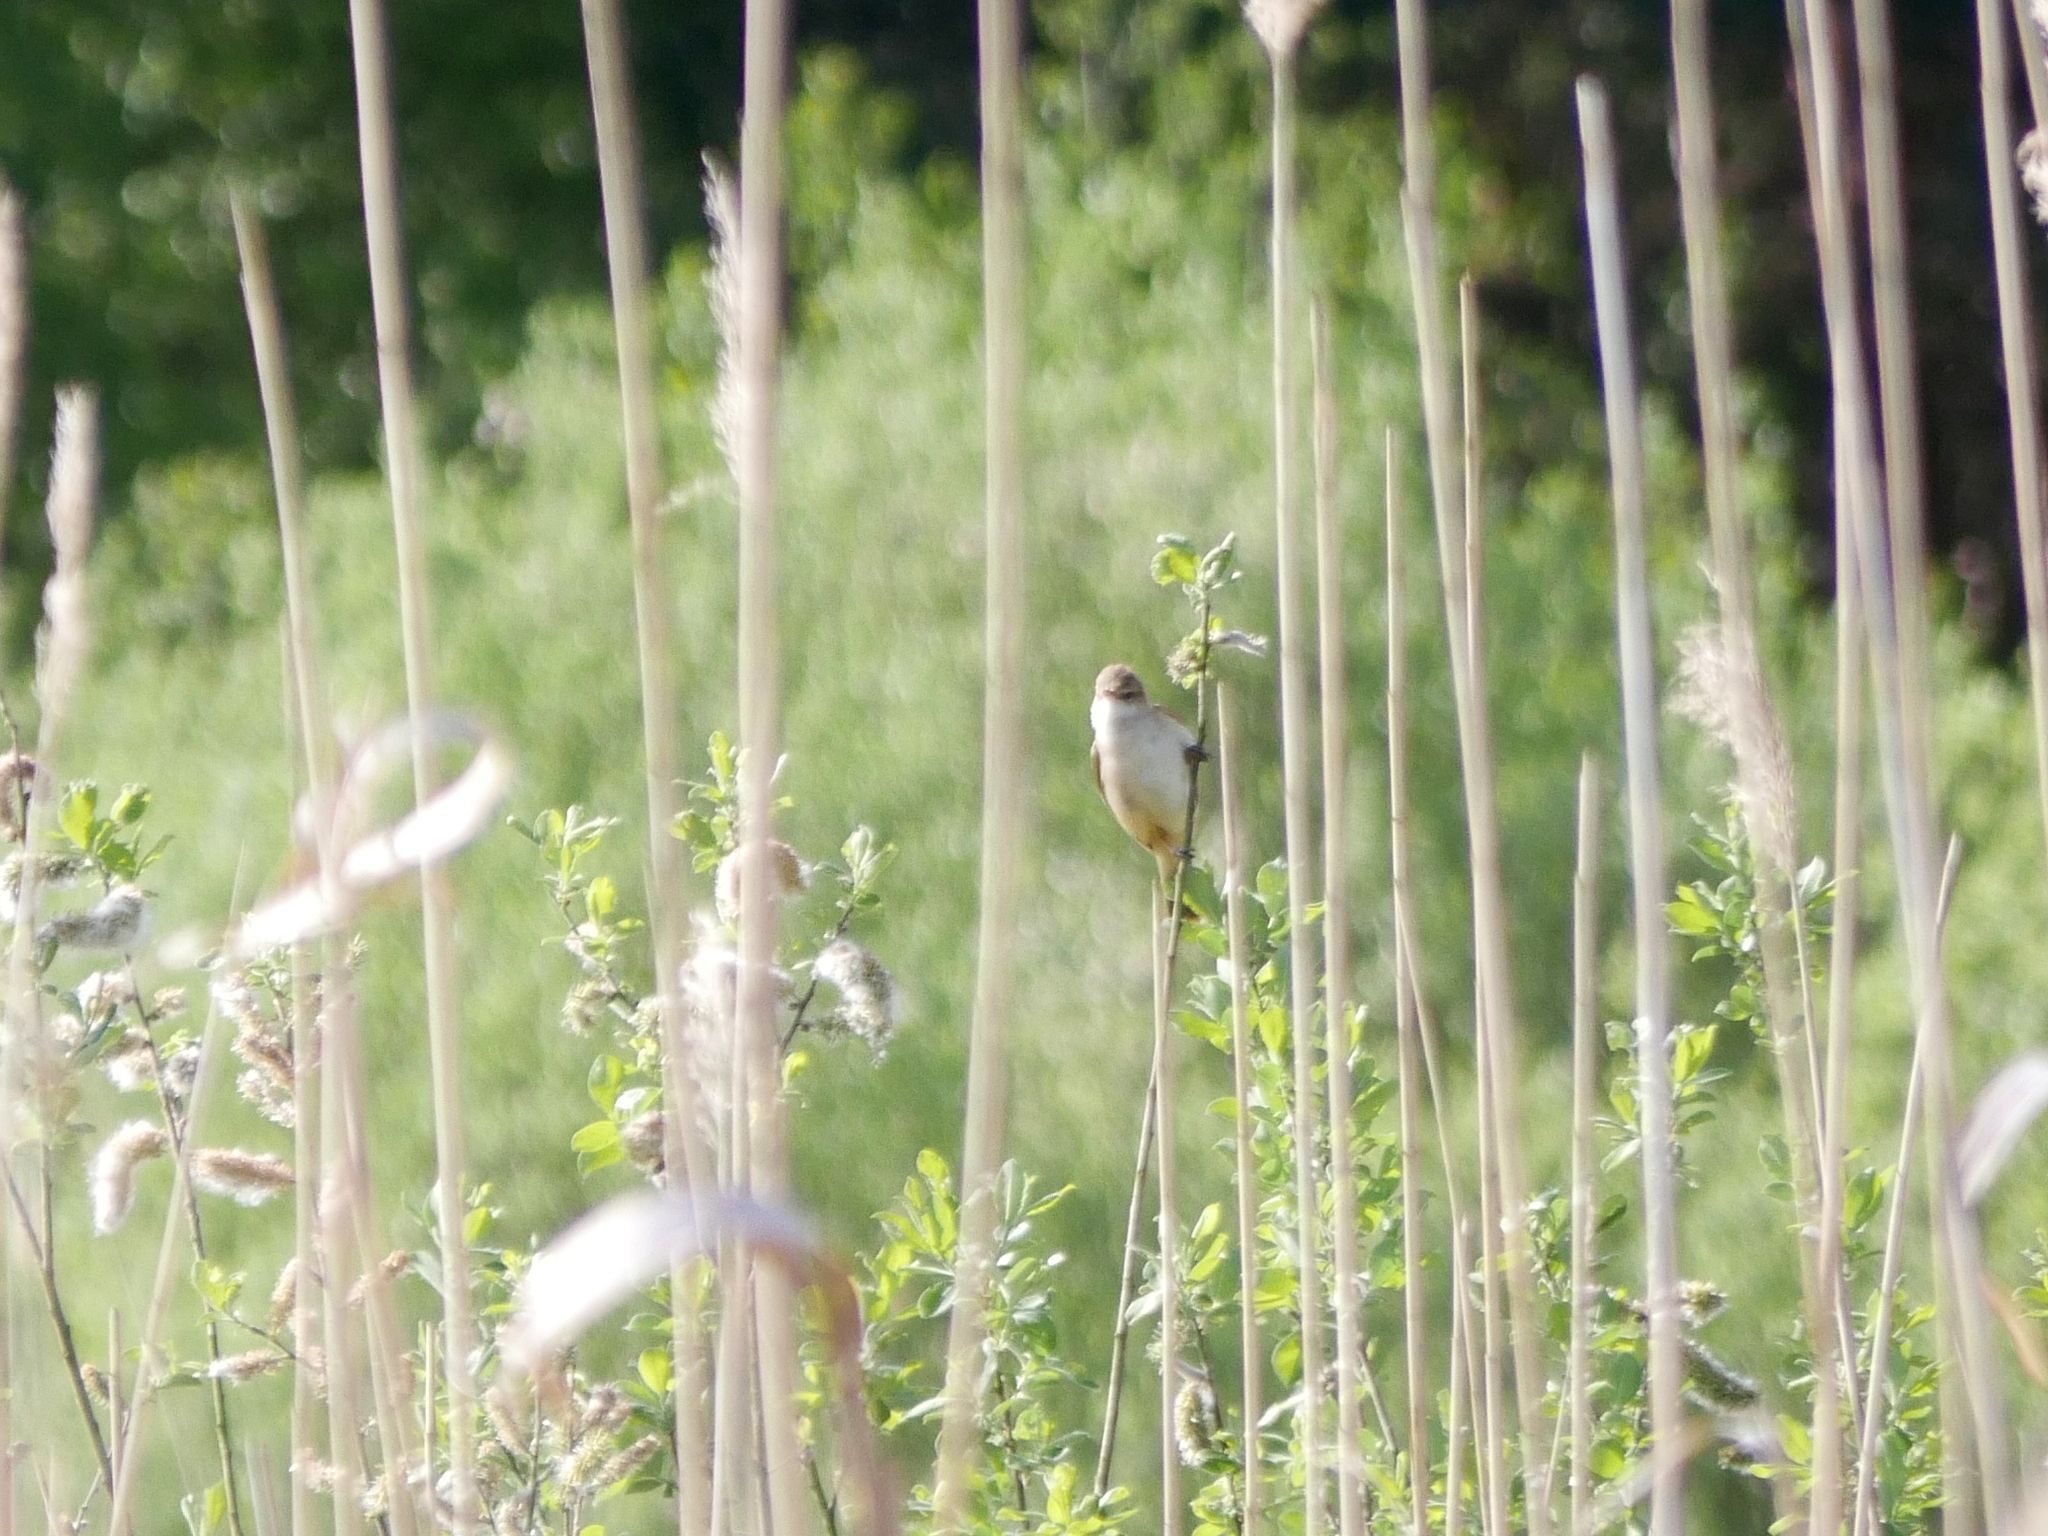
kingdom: Animalia
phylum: Chordata
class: Aves
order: Passeriformes
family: Acrocephalidae
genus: Acrocephalus
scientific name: Acrocephalus arundinaceus
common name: Great reed warbler
